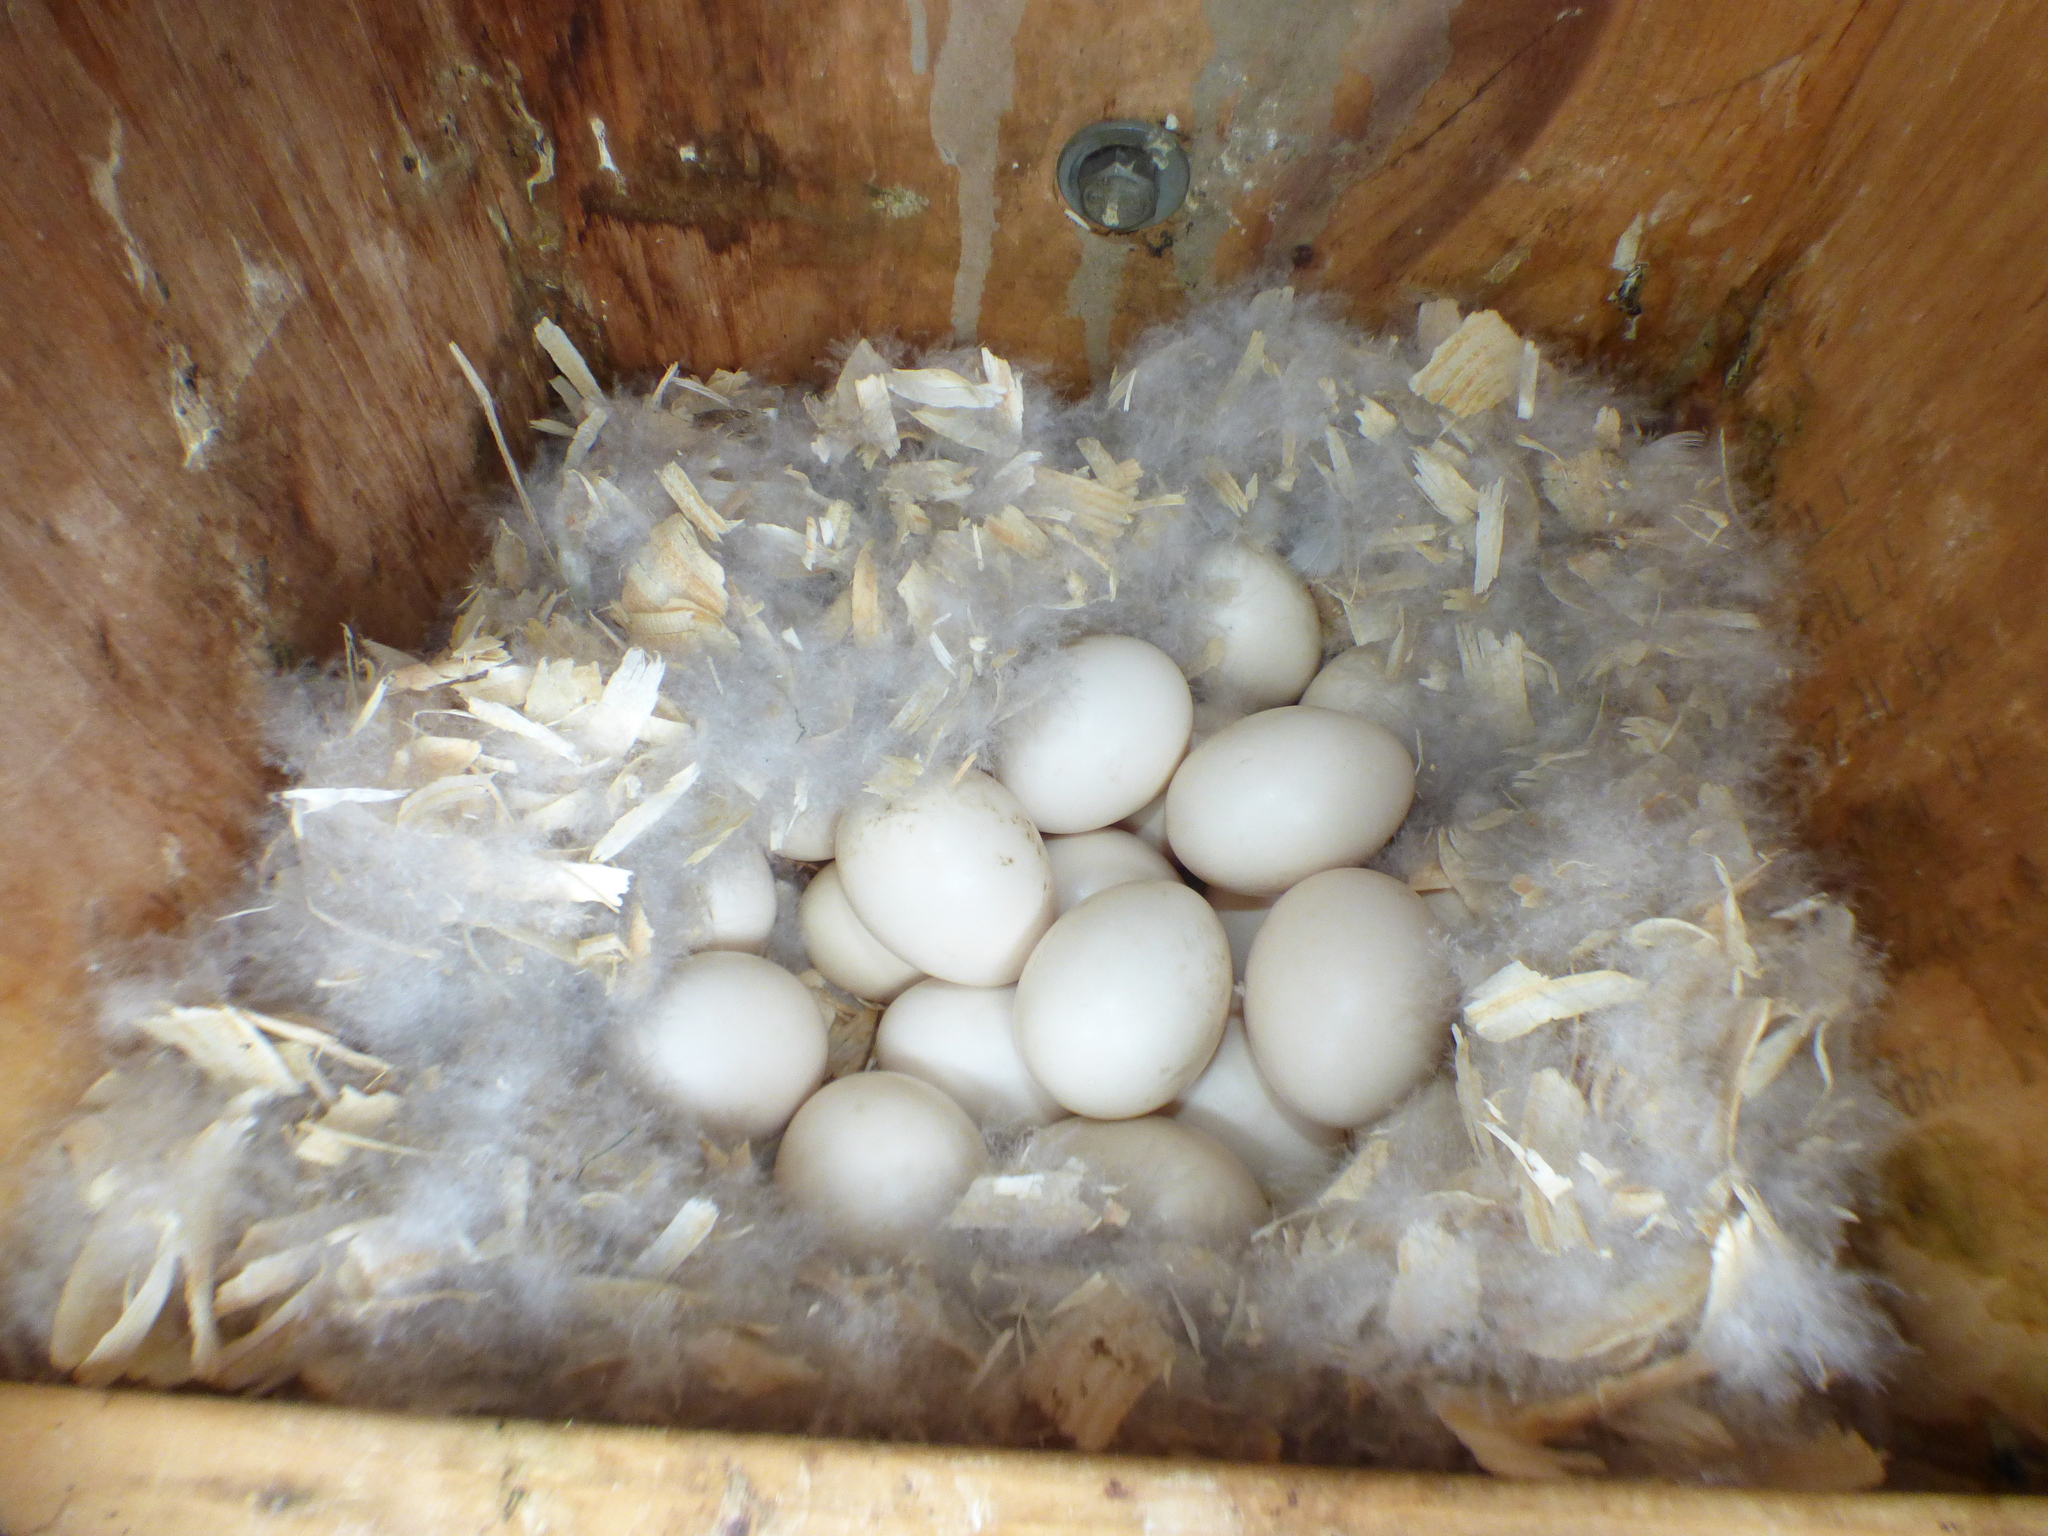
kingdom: Animalia
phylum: Chordata
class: Aves
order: Anseriformes
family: Anatidae
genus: Aix
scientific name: Aix sponsa
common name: Wood duck
